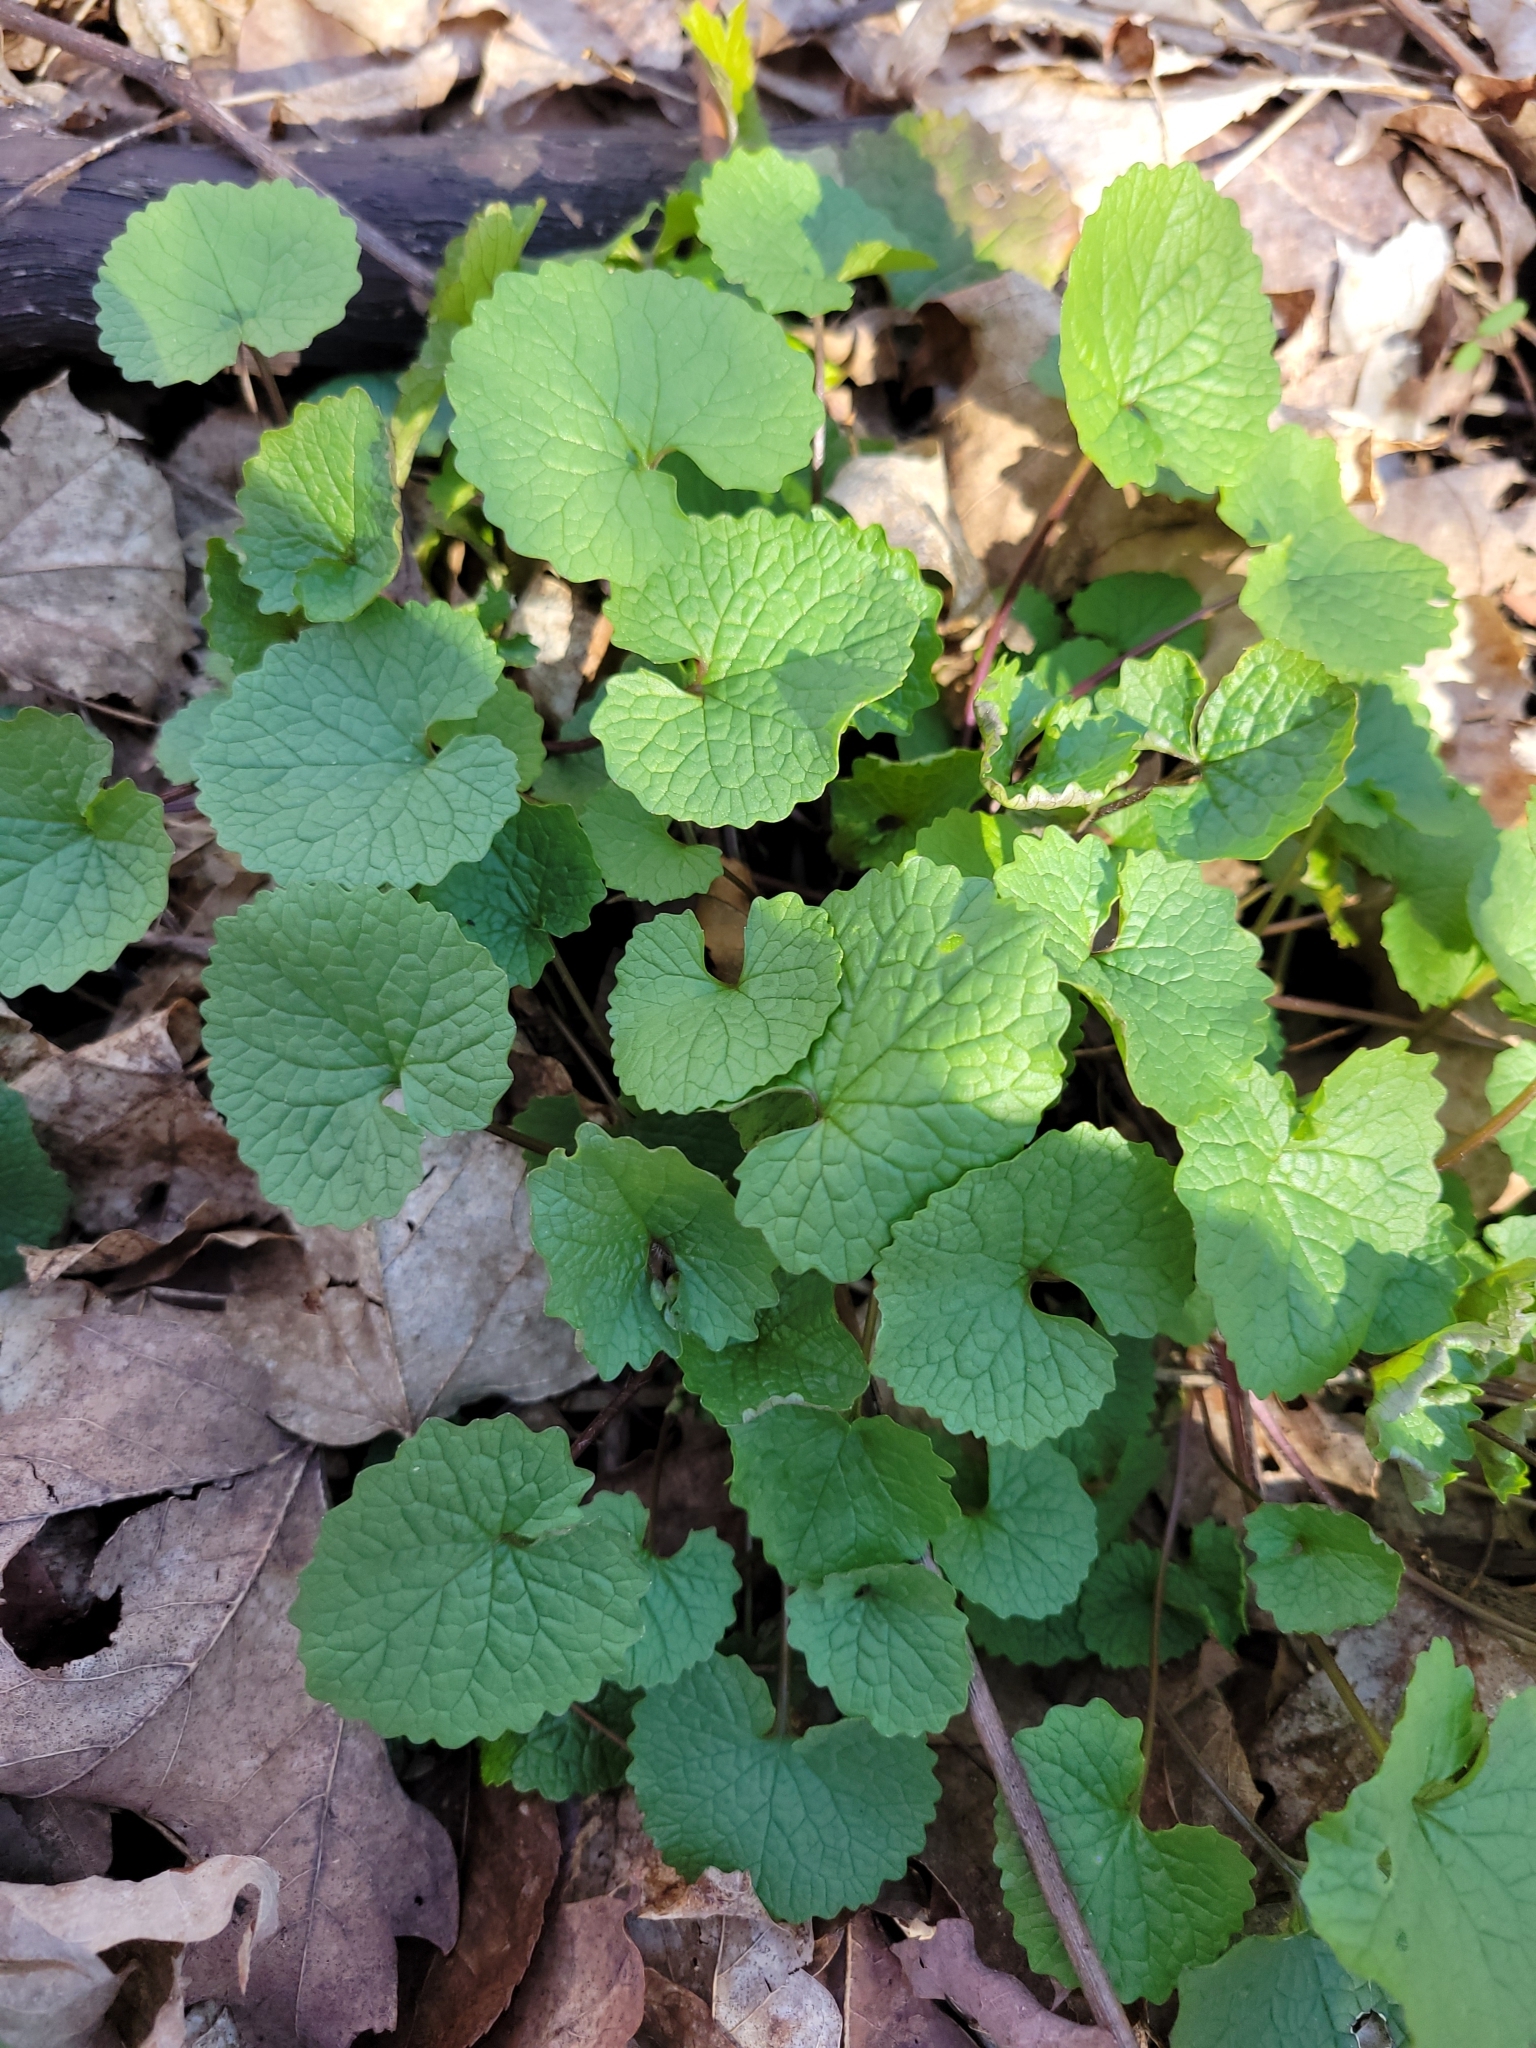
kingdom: Plantae
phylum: Tracheophyta
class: Magnoliopsida
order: Brassicales
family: Brassicaceae
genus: Alliaria
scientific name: Alliaria petiolata
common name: Garlic mustard
